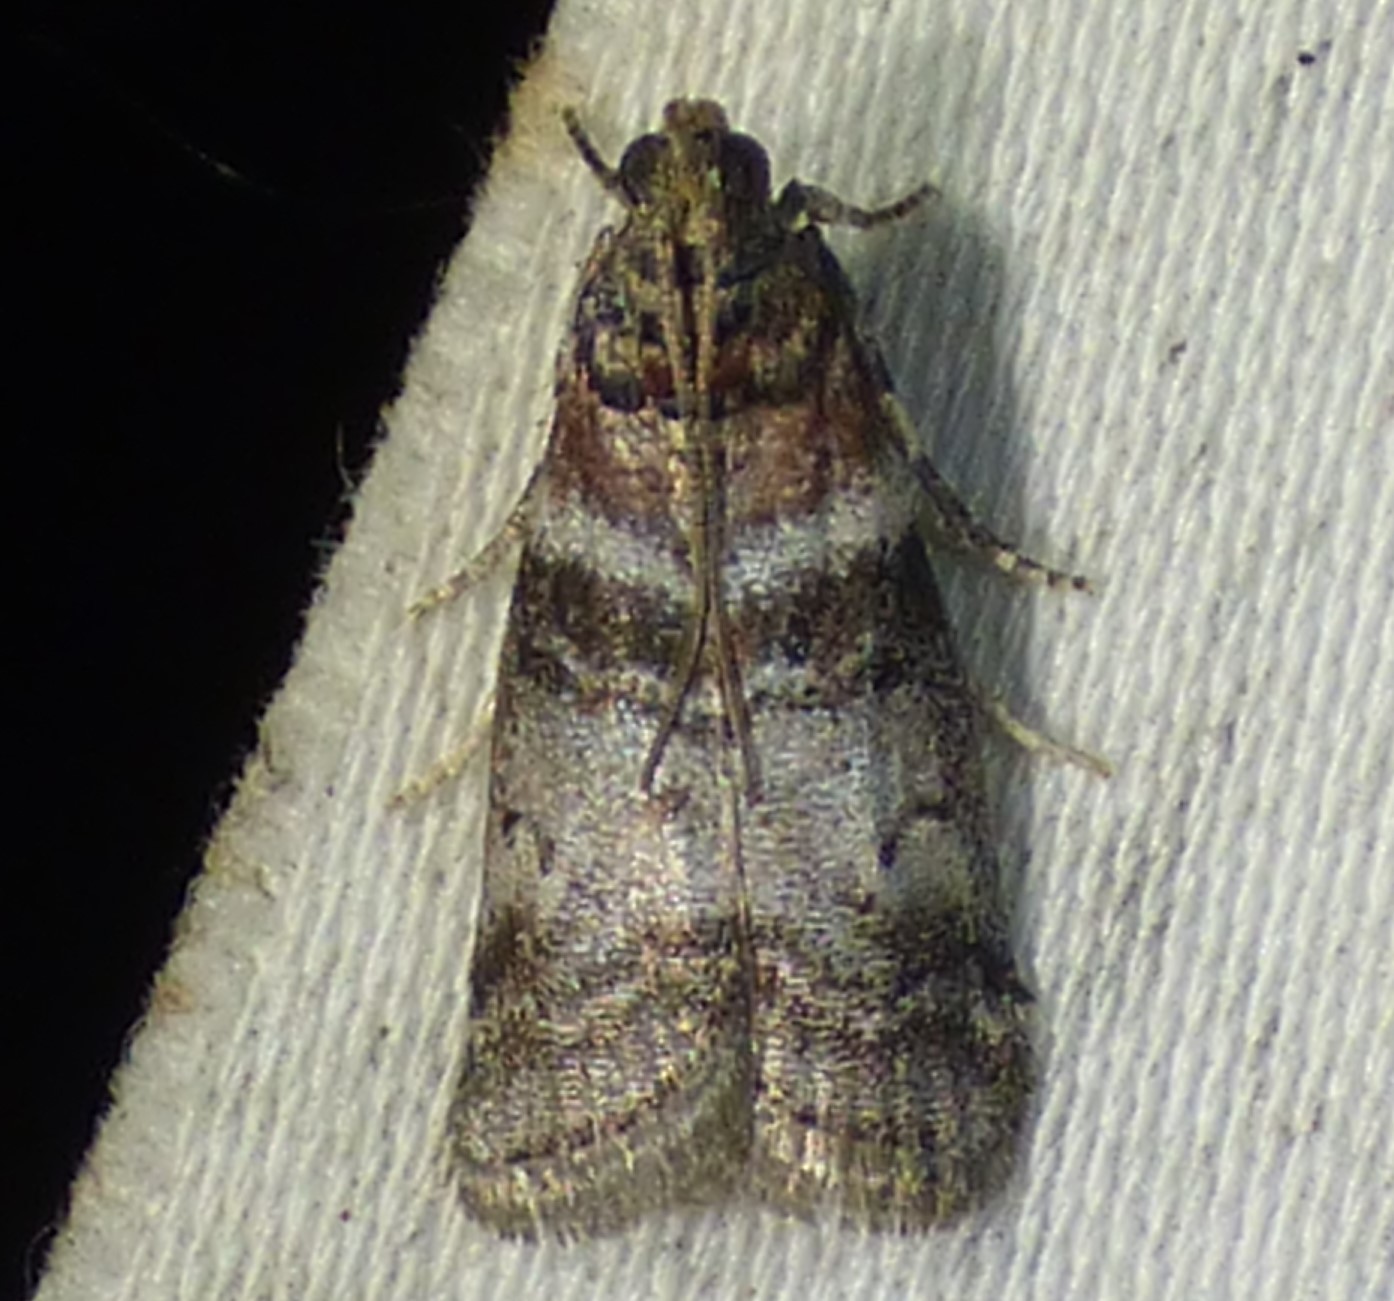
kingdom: Animalia
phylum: Arthropoda
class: Insecta
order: Lepidoptera
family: Pyralidae
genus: Sciota
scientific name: Sciota uvinella
